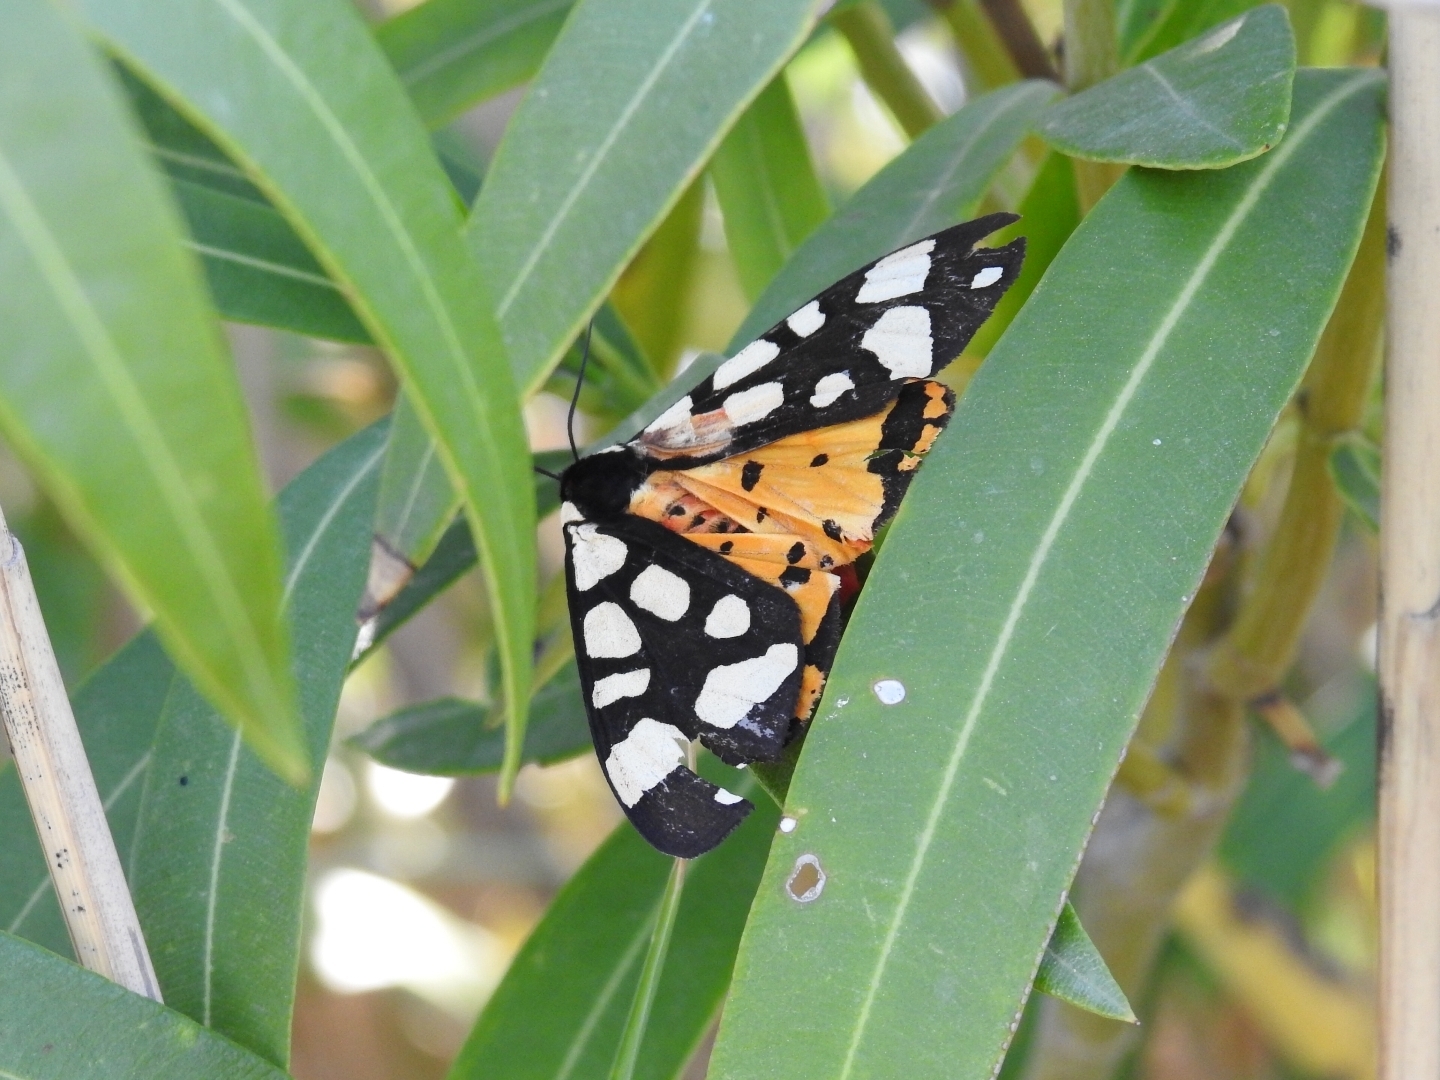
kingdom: Animalia
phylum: Arthropoda
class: Insecta
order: Lepidoptera
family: Erebidae
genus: Epicallia
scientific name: Epicallia villica
